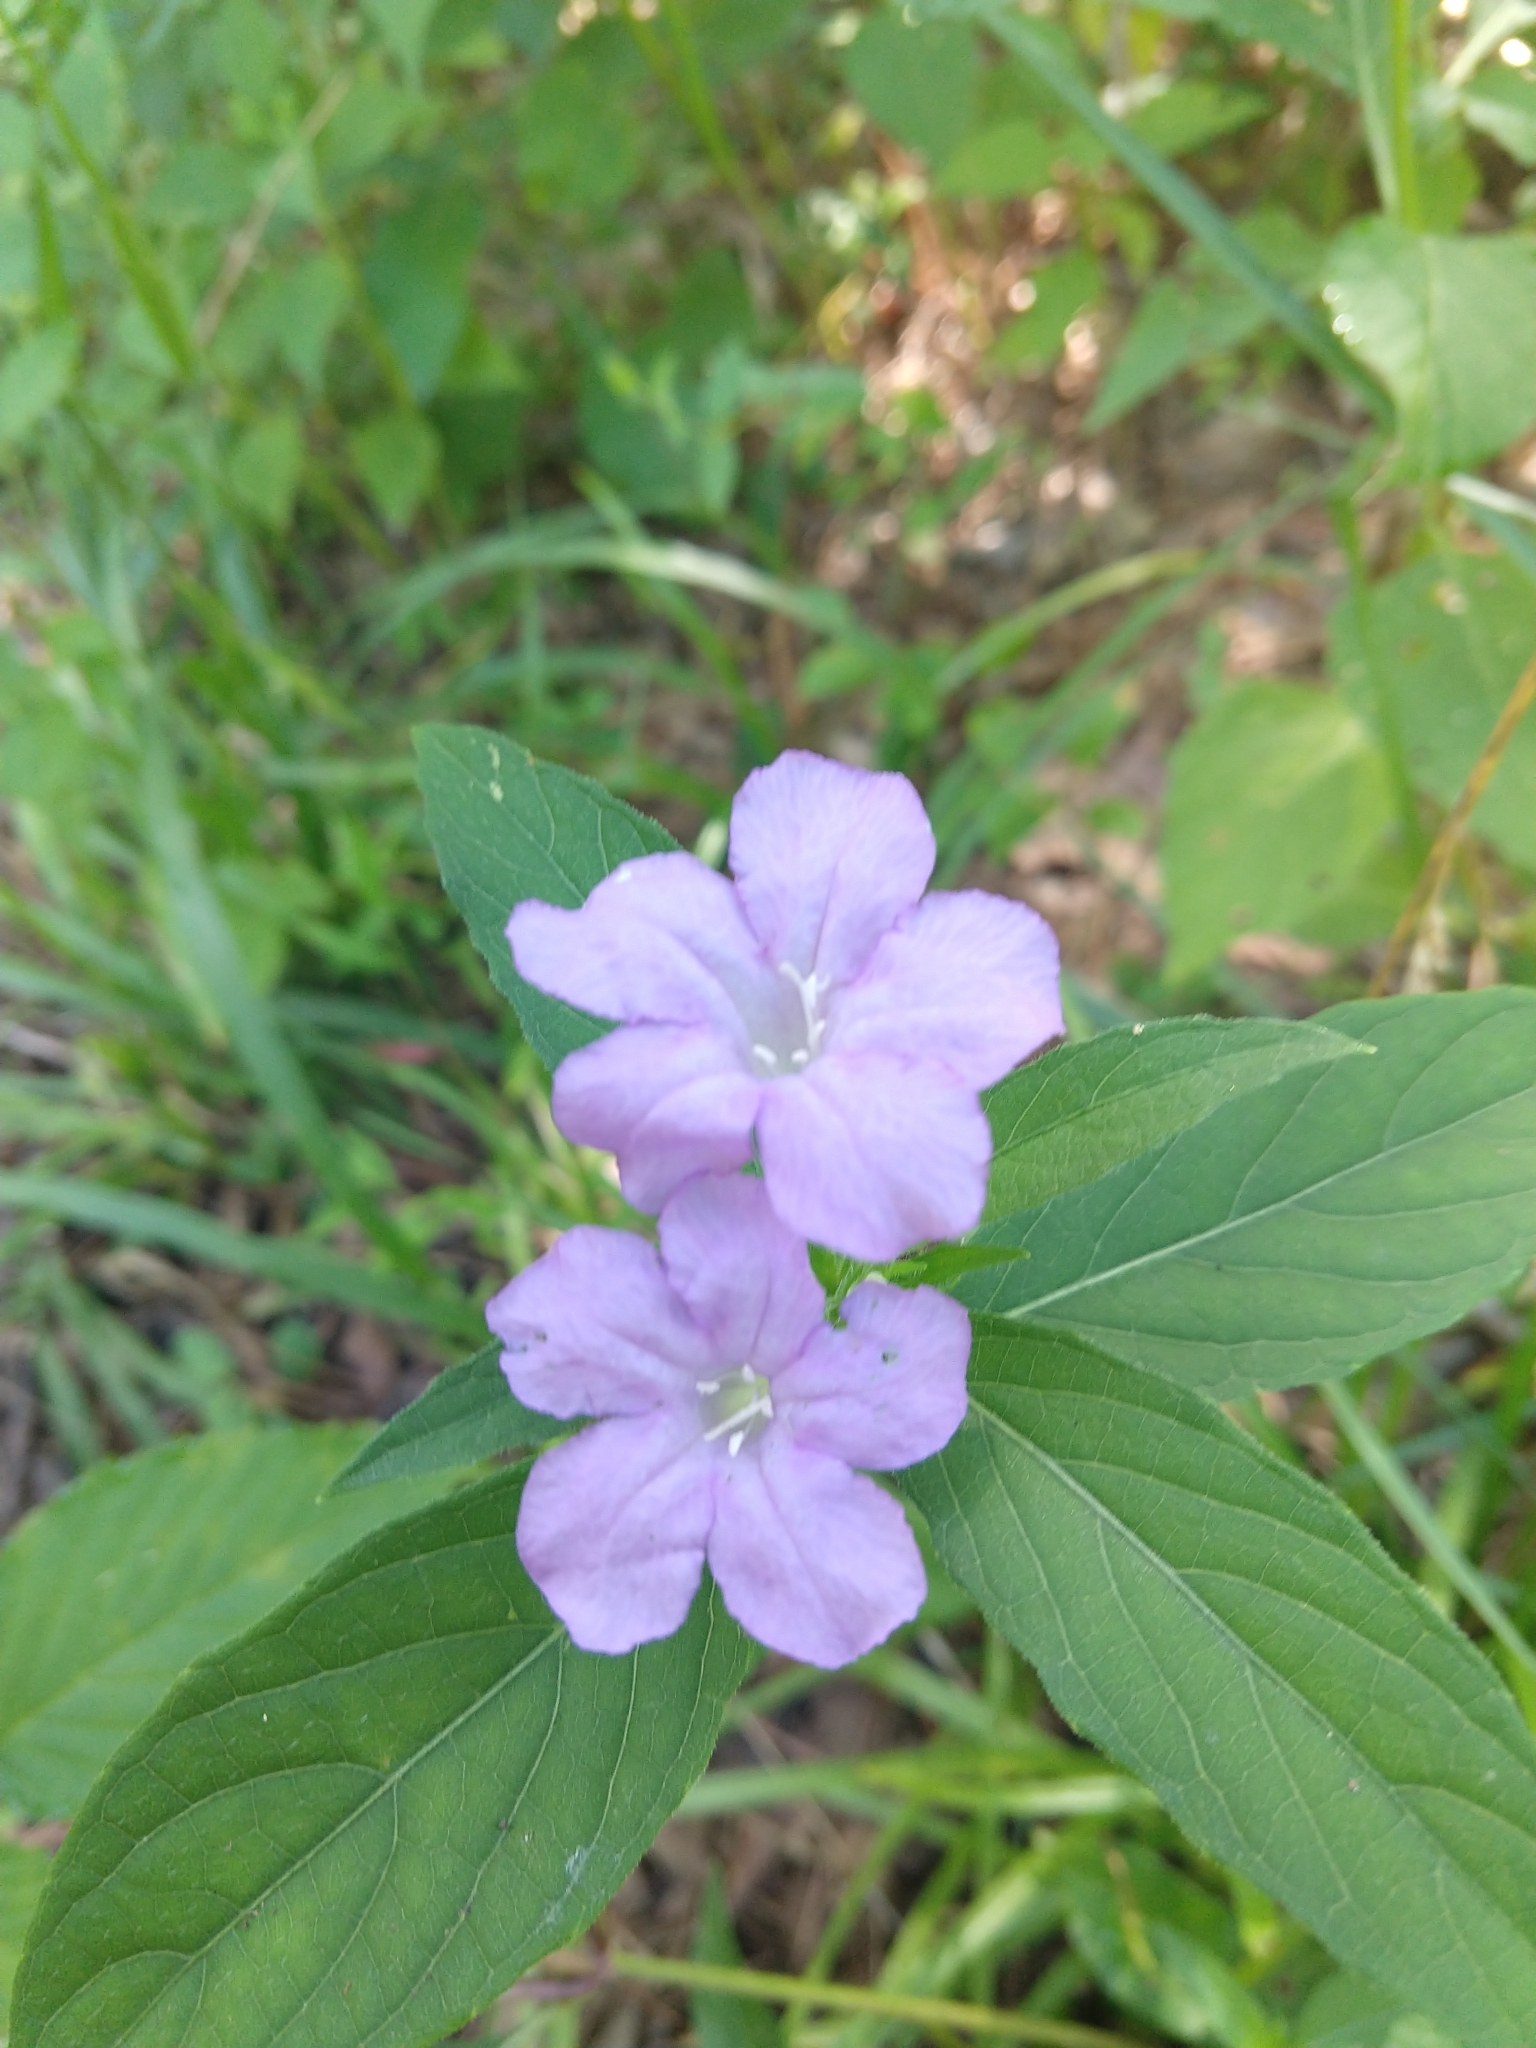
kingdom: Plantae
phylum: Tracheophyta
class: Magnoliopsida
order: Lamiales
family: Acanthaceae
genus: Ruellia
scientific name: Ruellia caroliniensis
